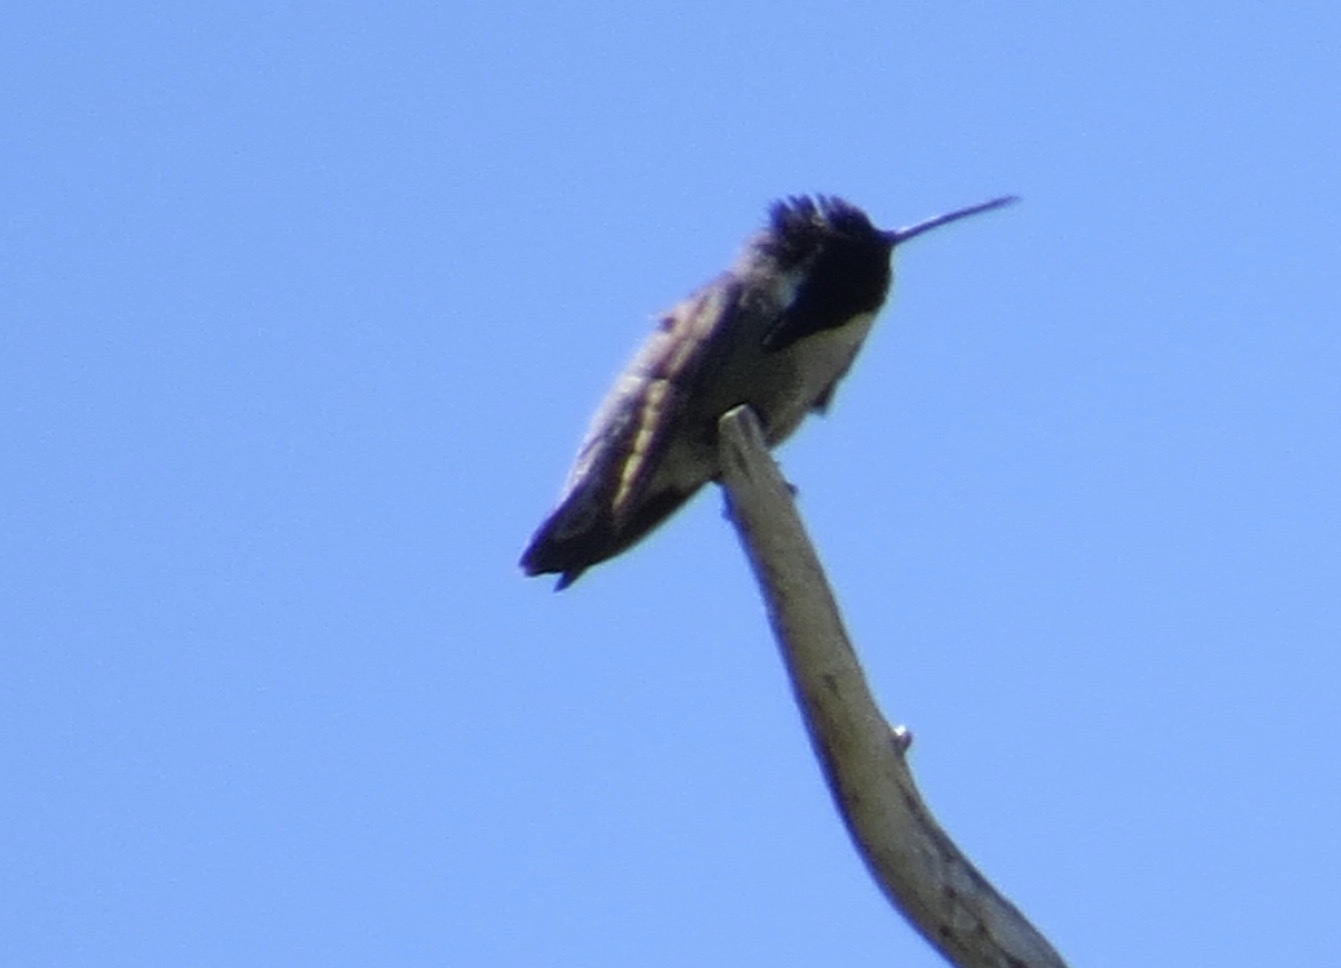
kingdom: Animalia
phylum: Chordata
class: Aves
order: Apodiformes
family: Trochilidae
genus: Calypte
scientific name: Calypte costae
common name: Costa's hummingbird
